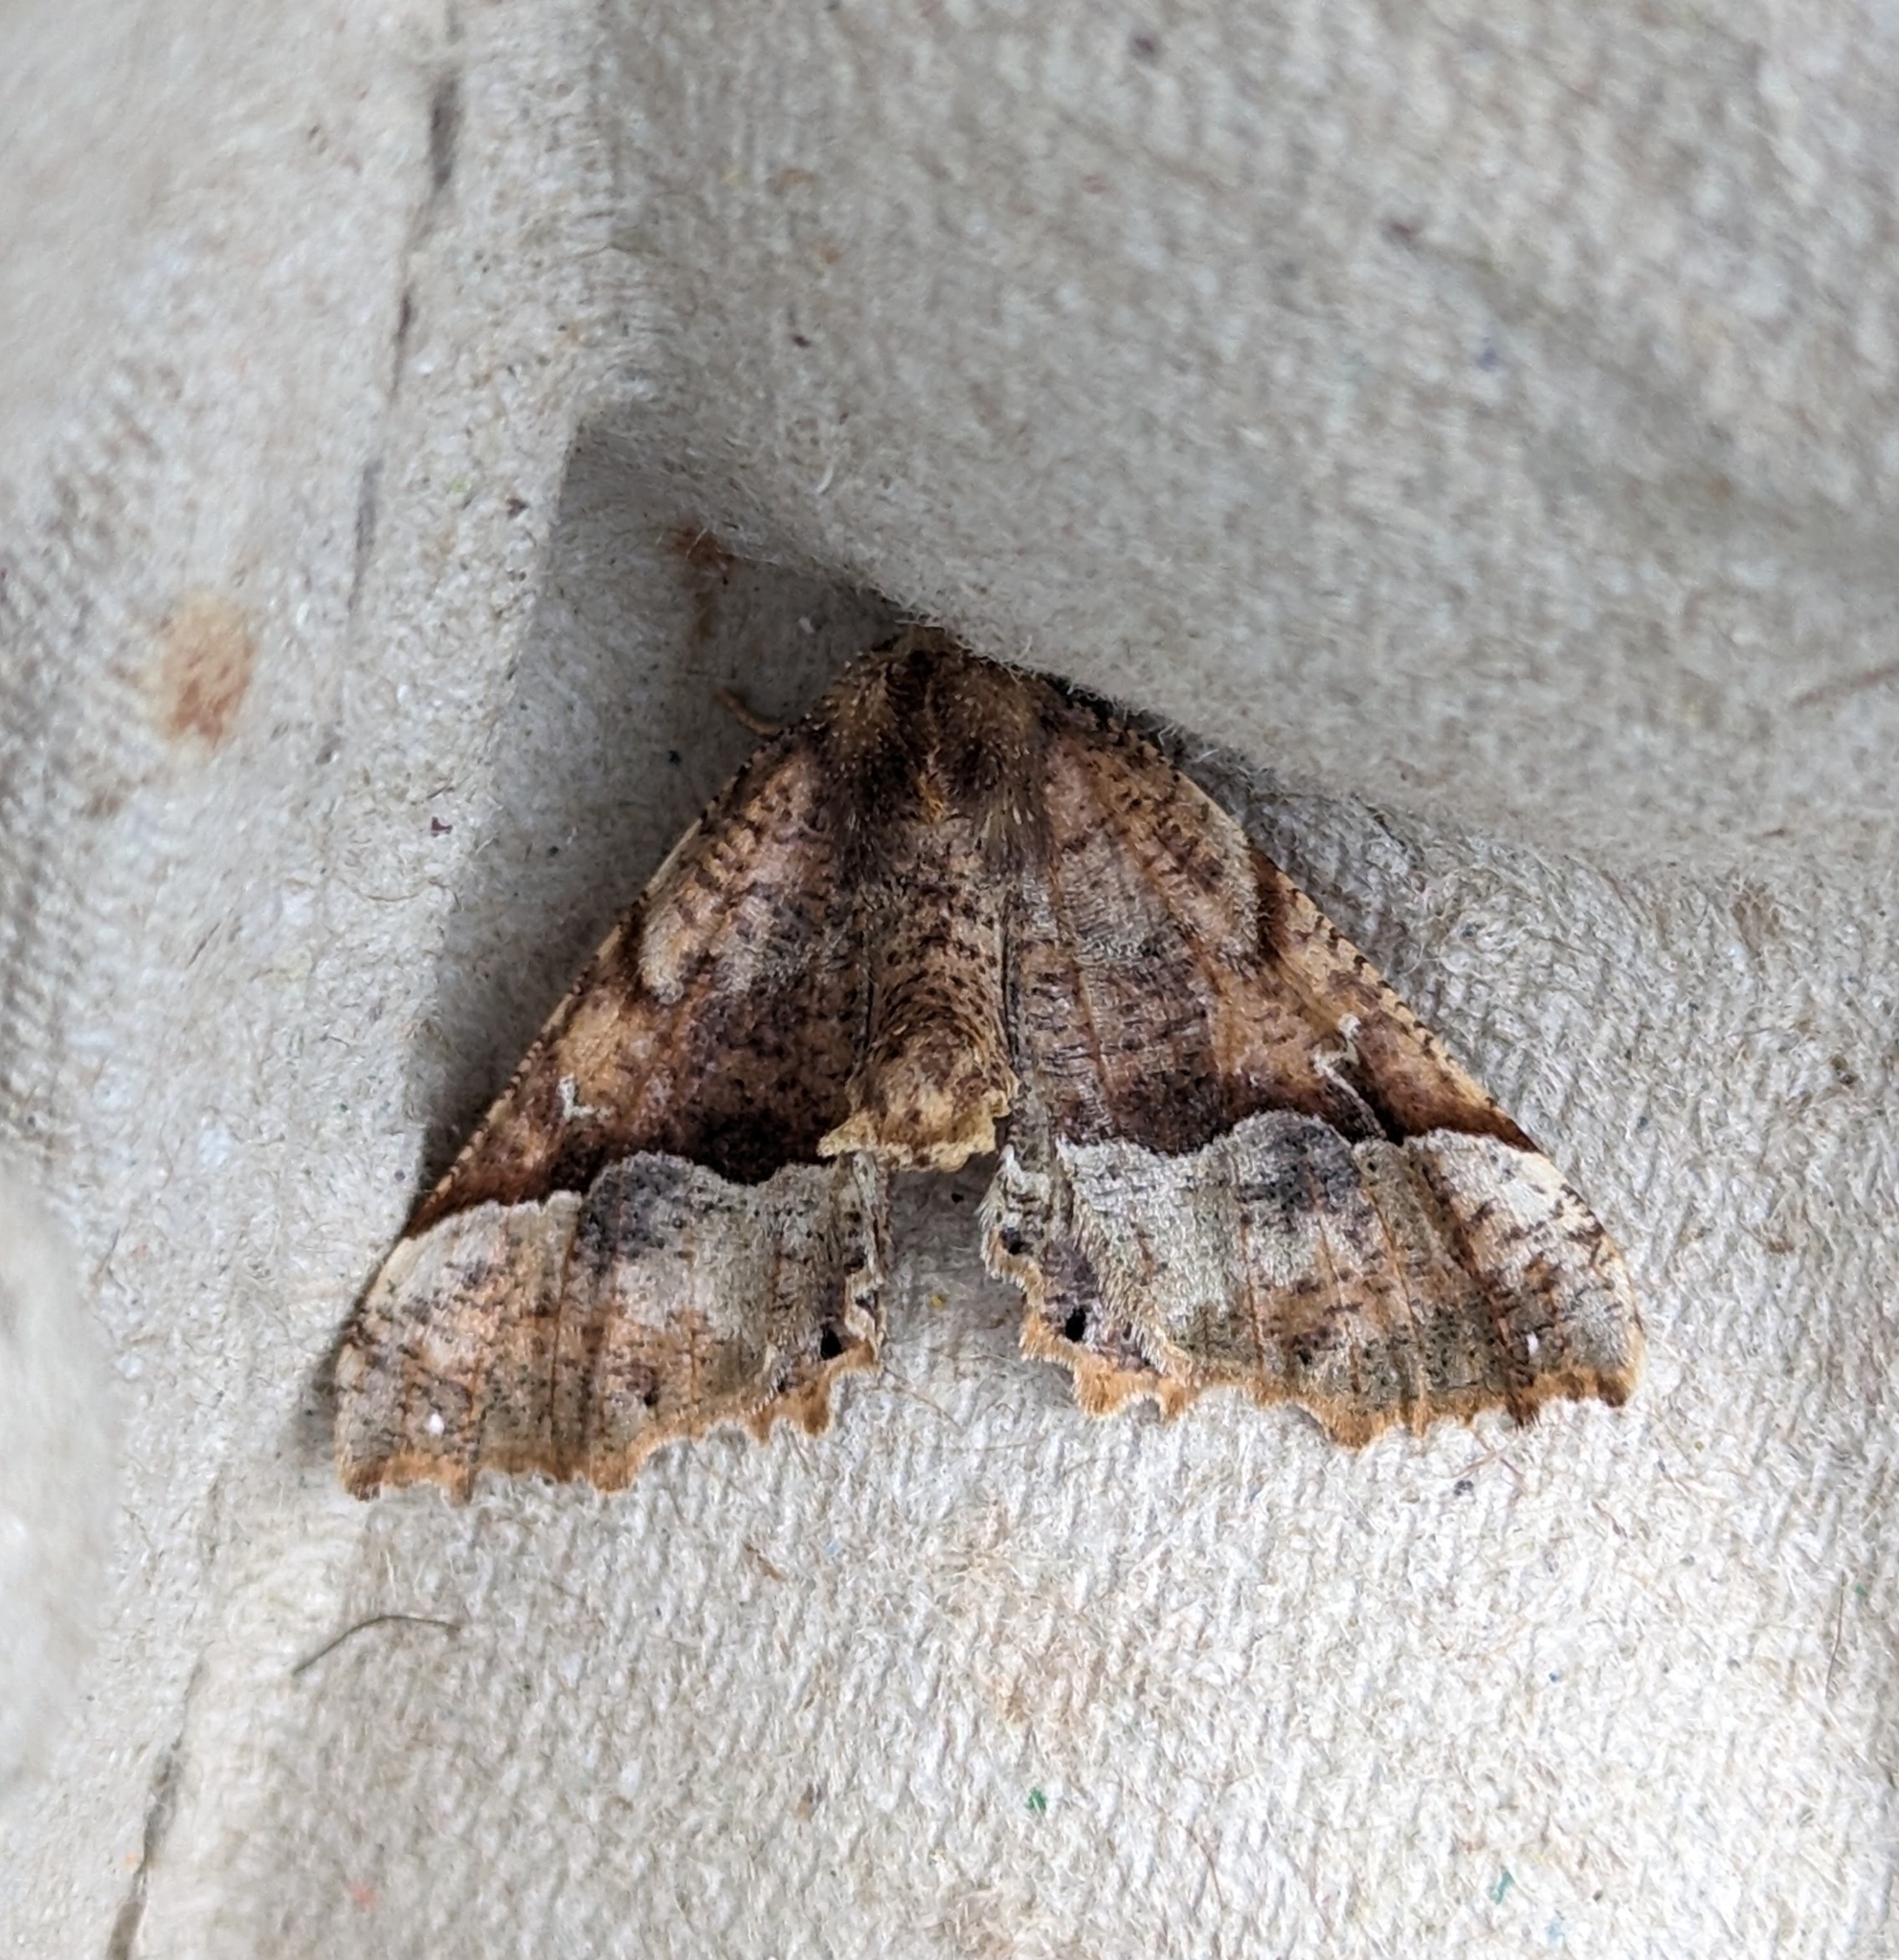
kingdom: Animalia
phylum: Arthropoda
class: Insecta
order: Lepidoptera
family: Geometridae
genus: Pero
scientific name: Pero morrisonaria
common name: Morrison's pero
